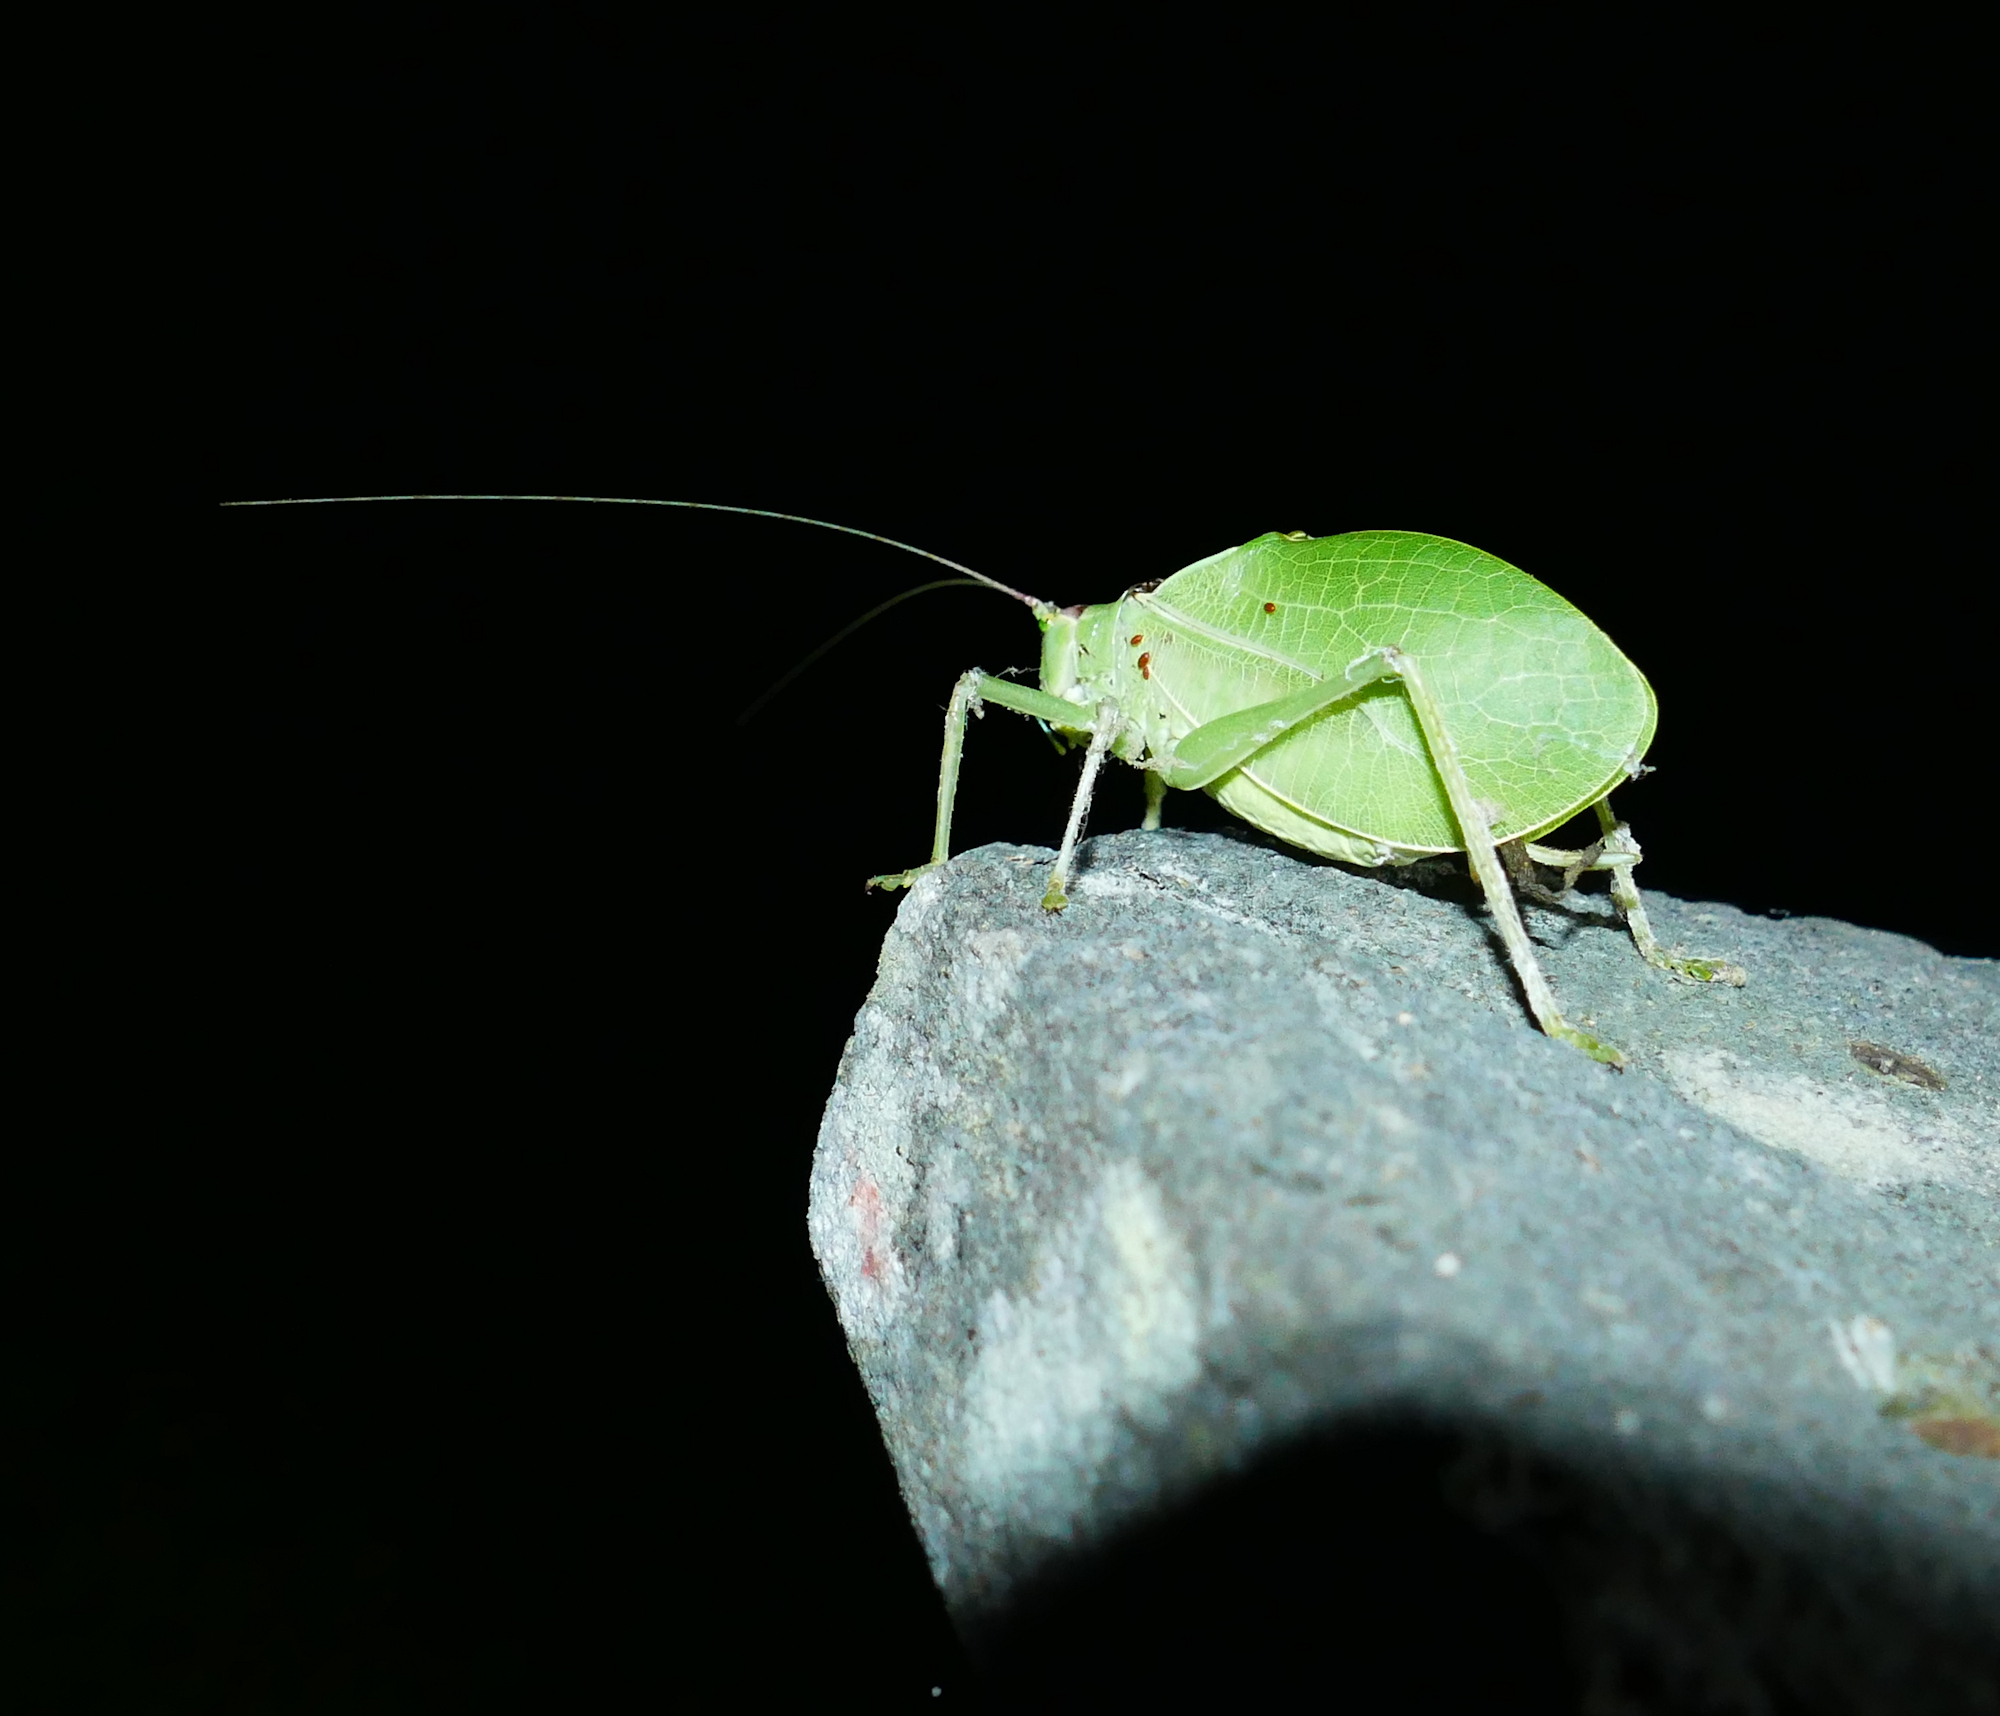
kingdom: Animalia
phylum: Arthropoda
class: Insecta
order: Orthoptera
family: Tettigoniidae
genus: Pterophylla
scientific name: Pterophylla camellifolia
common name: Common true katydid
